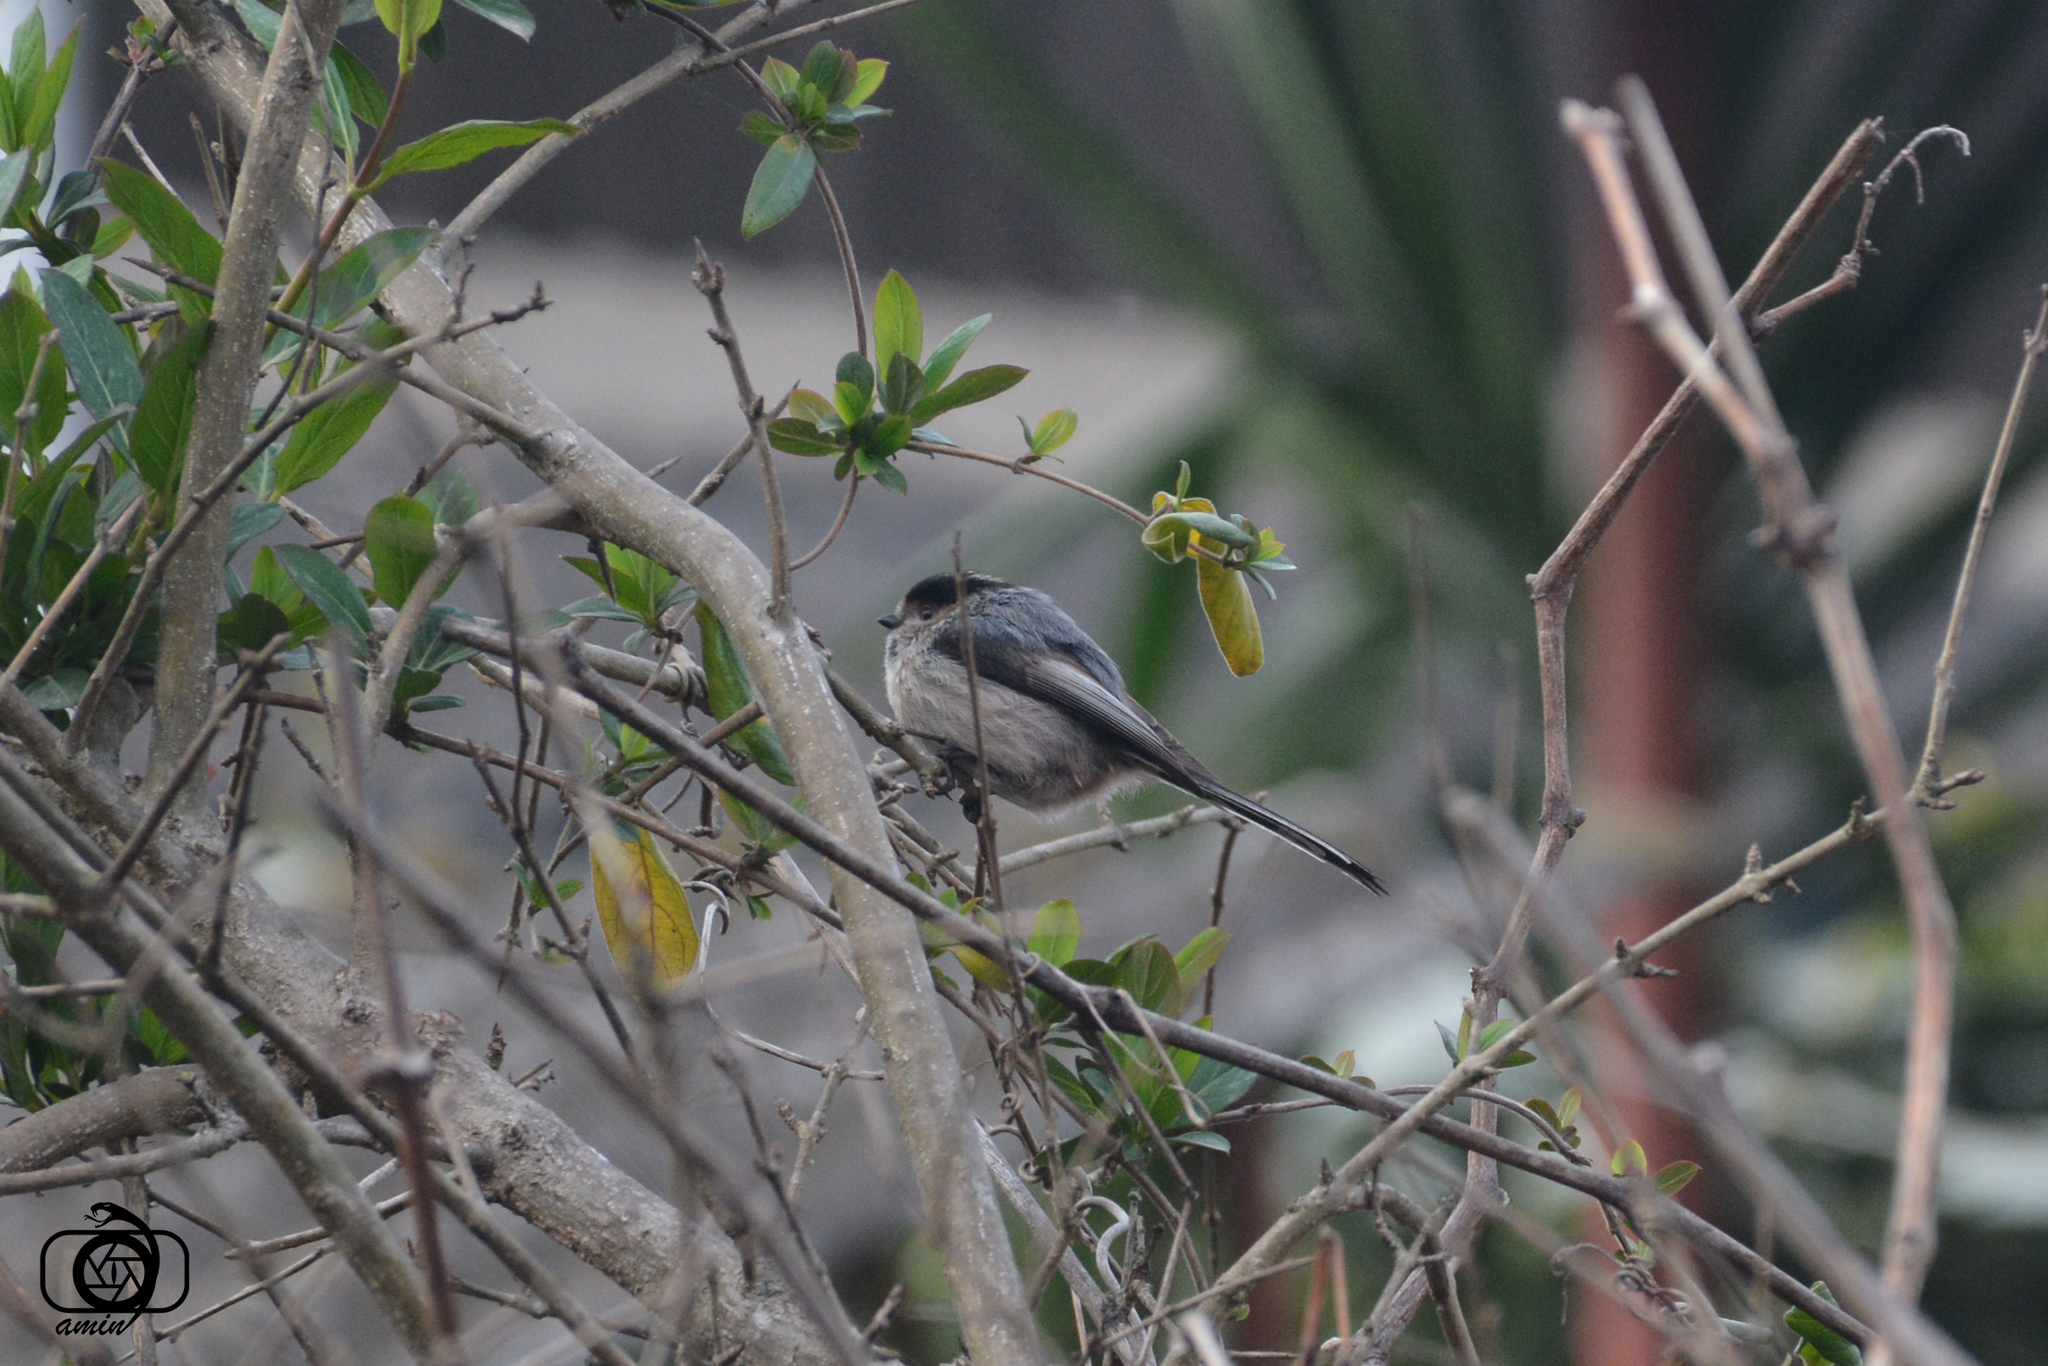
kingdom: Animalia
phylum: Chordata
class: Aves
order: Passeriformes
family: Aegithalidae
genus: Aegithalos
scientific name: Aegithalos caudatus
